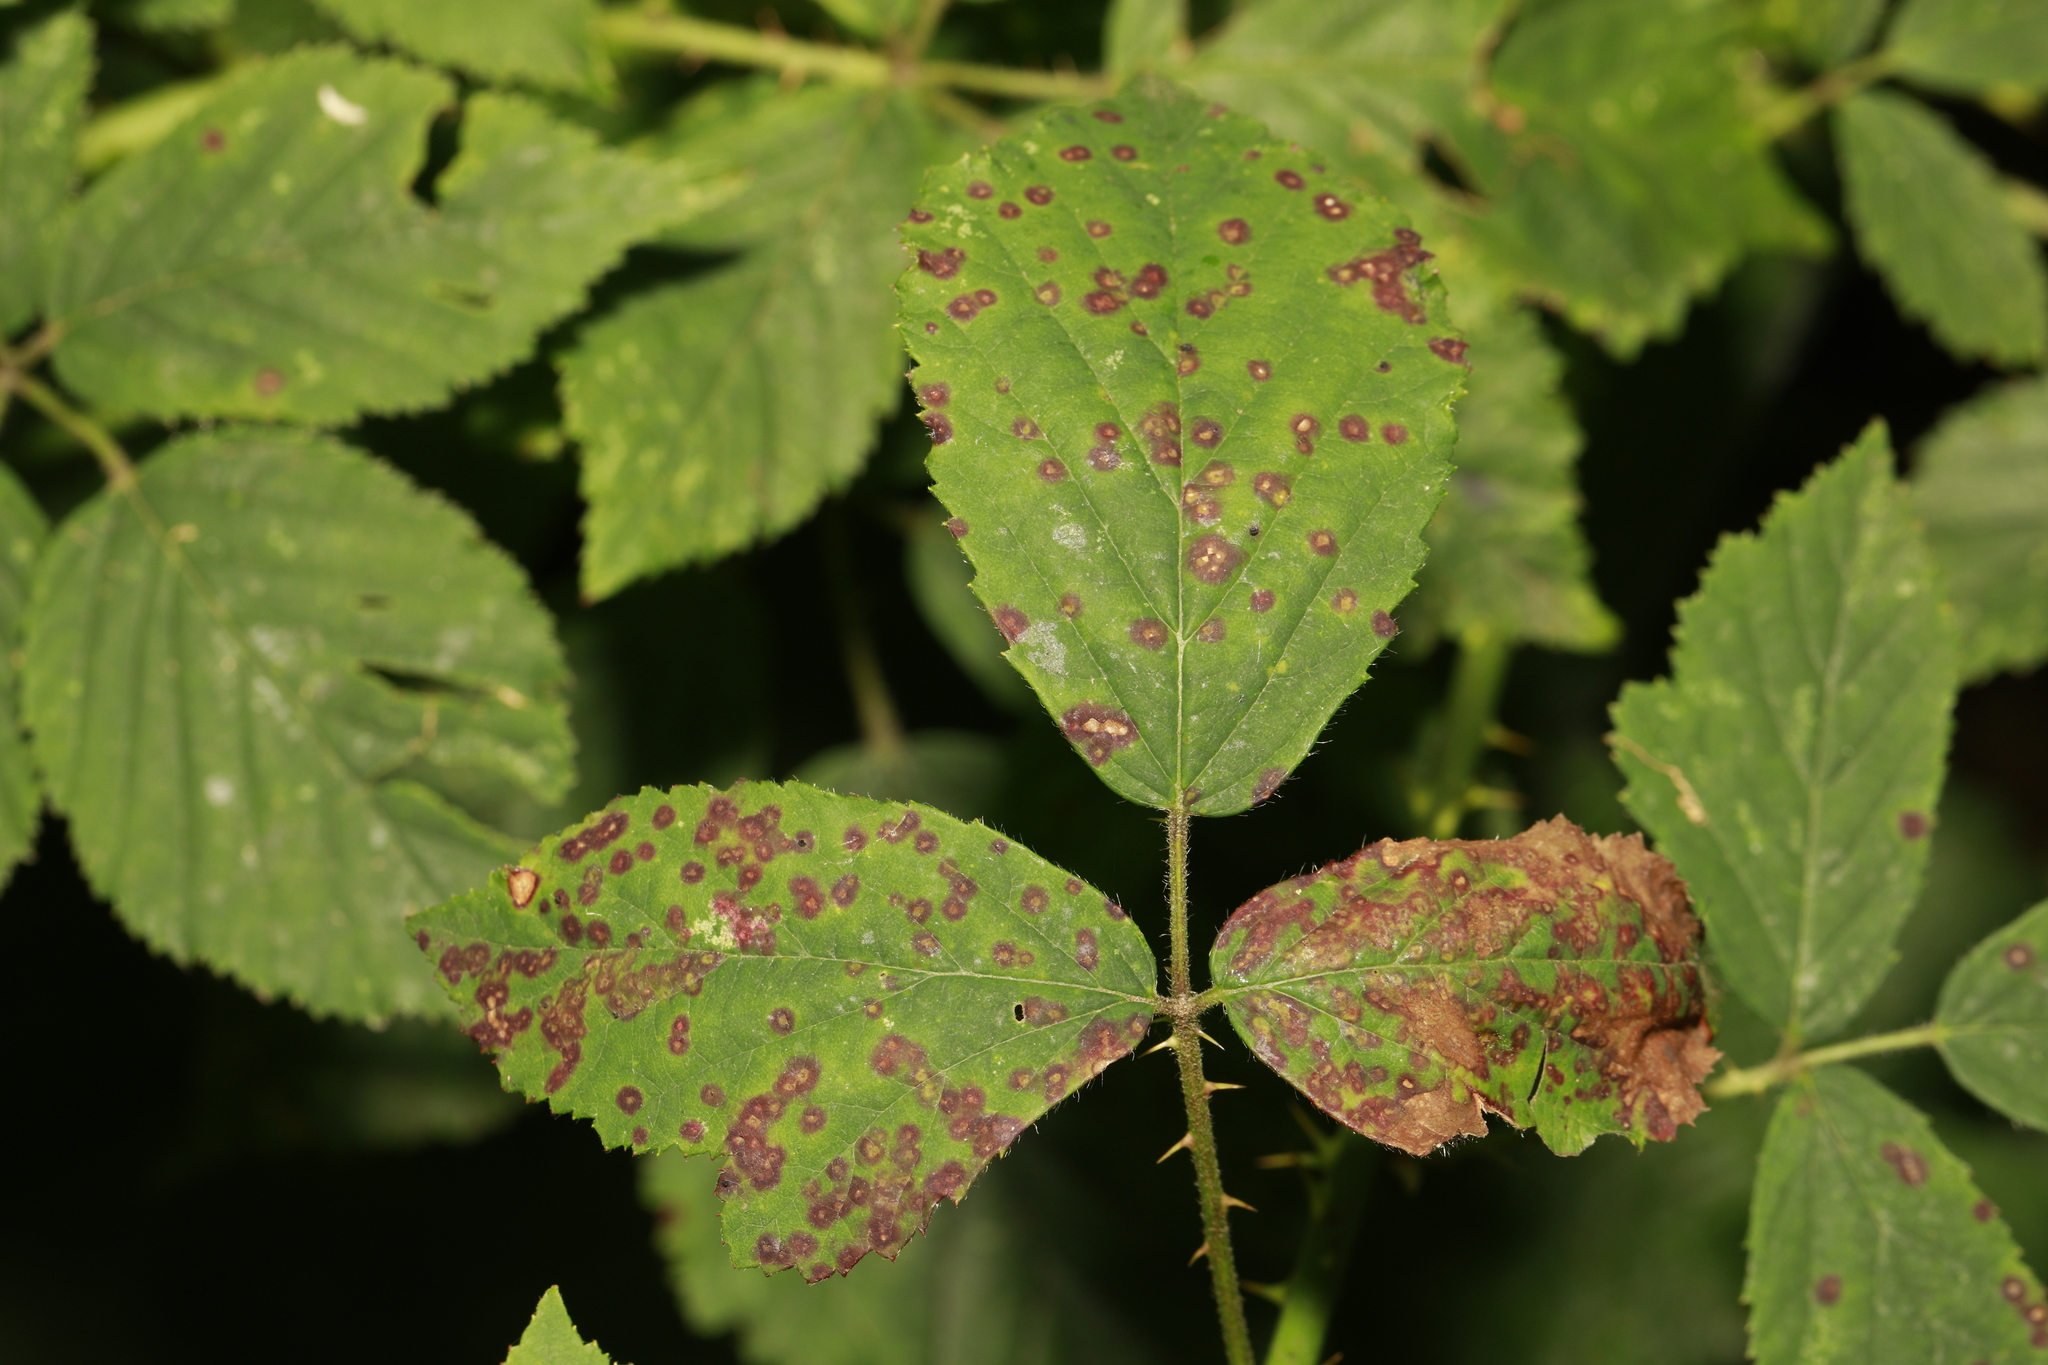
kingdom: Fungi
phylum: Basidiomycota
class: Pucciniomycetes
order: Pucciniales
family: Phragmidiaceae
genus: Phragmidium
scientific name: Phragmidium violaceum
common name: Violet bramble rust
